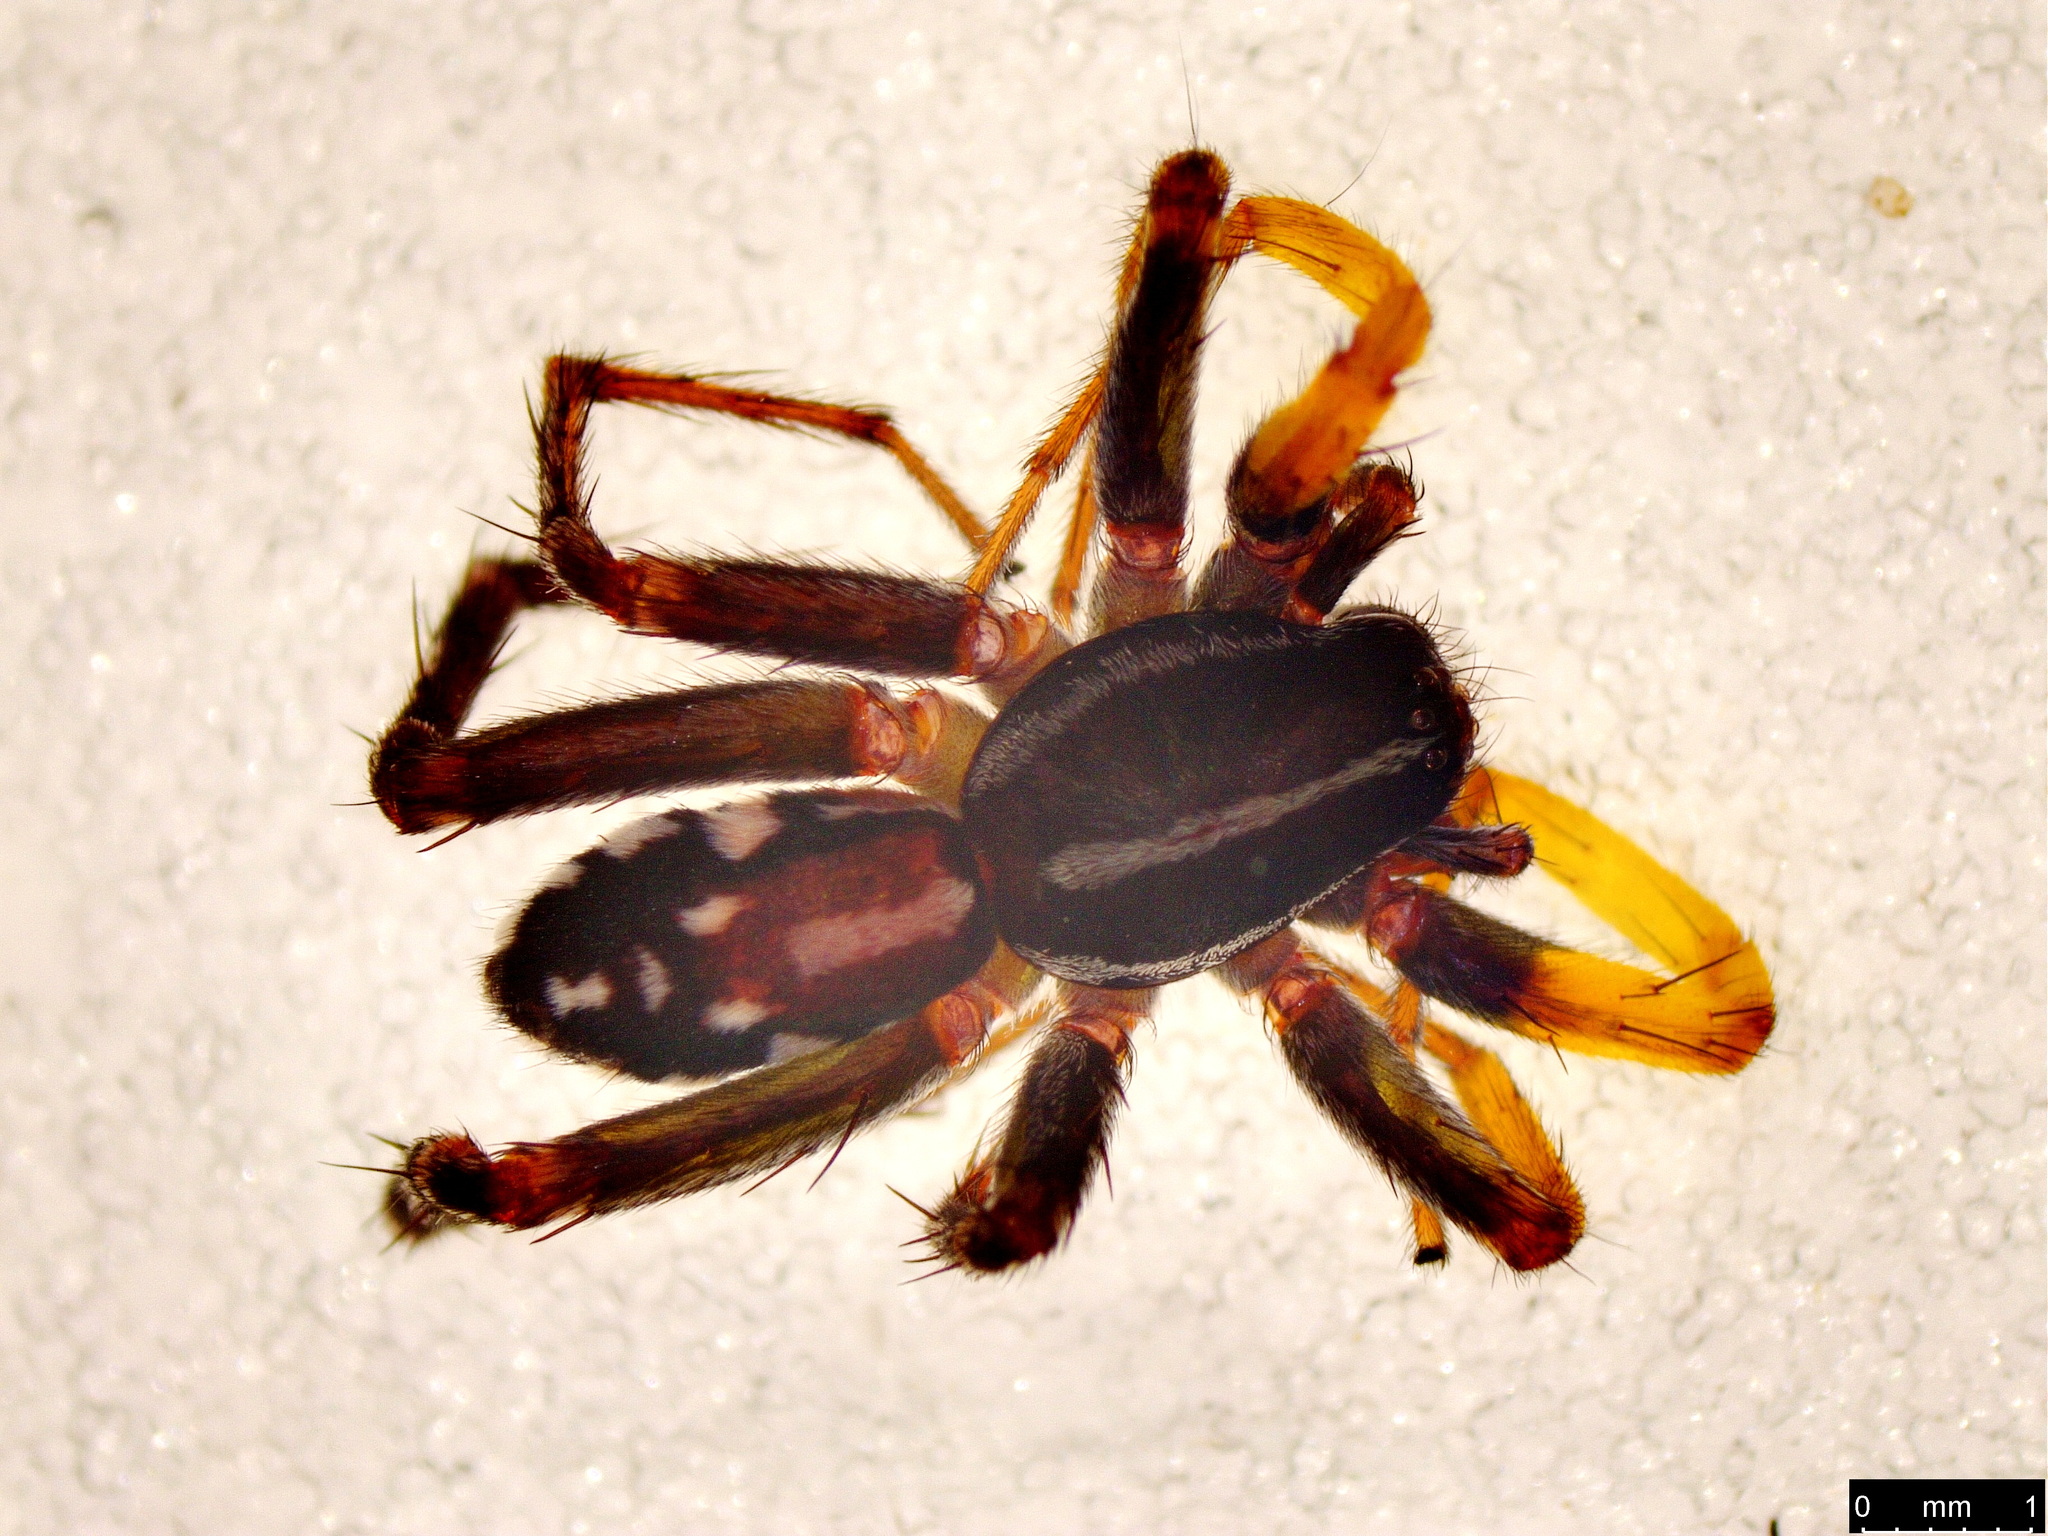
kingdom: Animalia
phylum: Arthropoda
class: Arachnida
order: Araneae
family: Corinnidae
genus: Nyssus
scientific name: Nyssus coloripes
